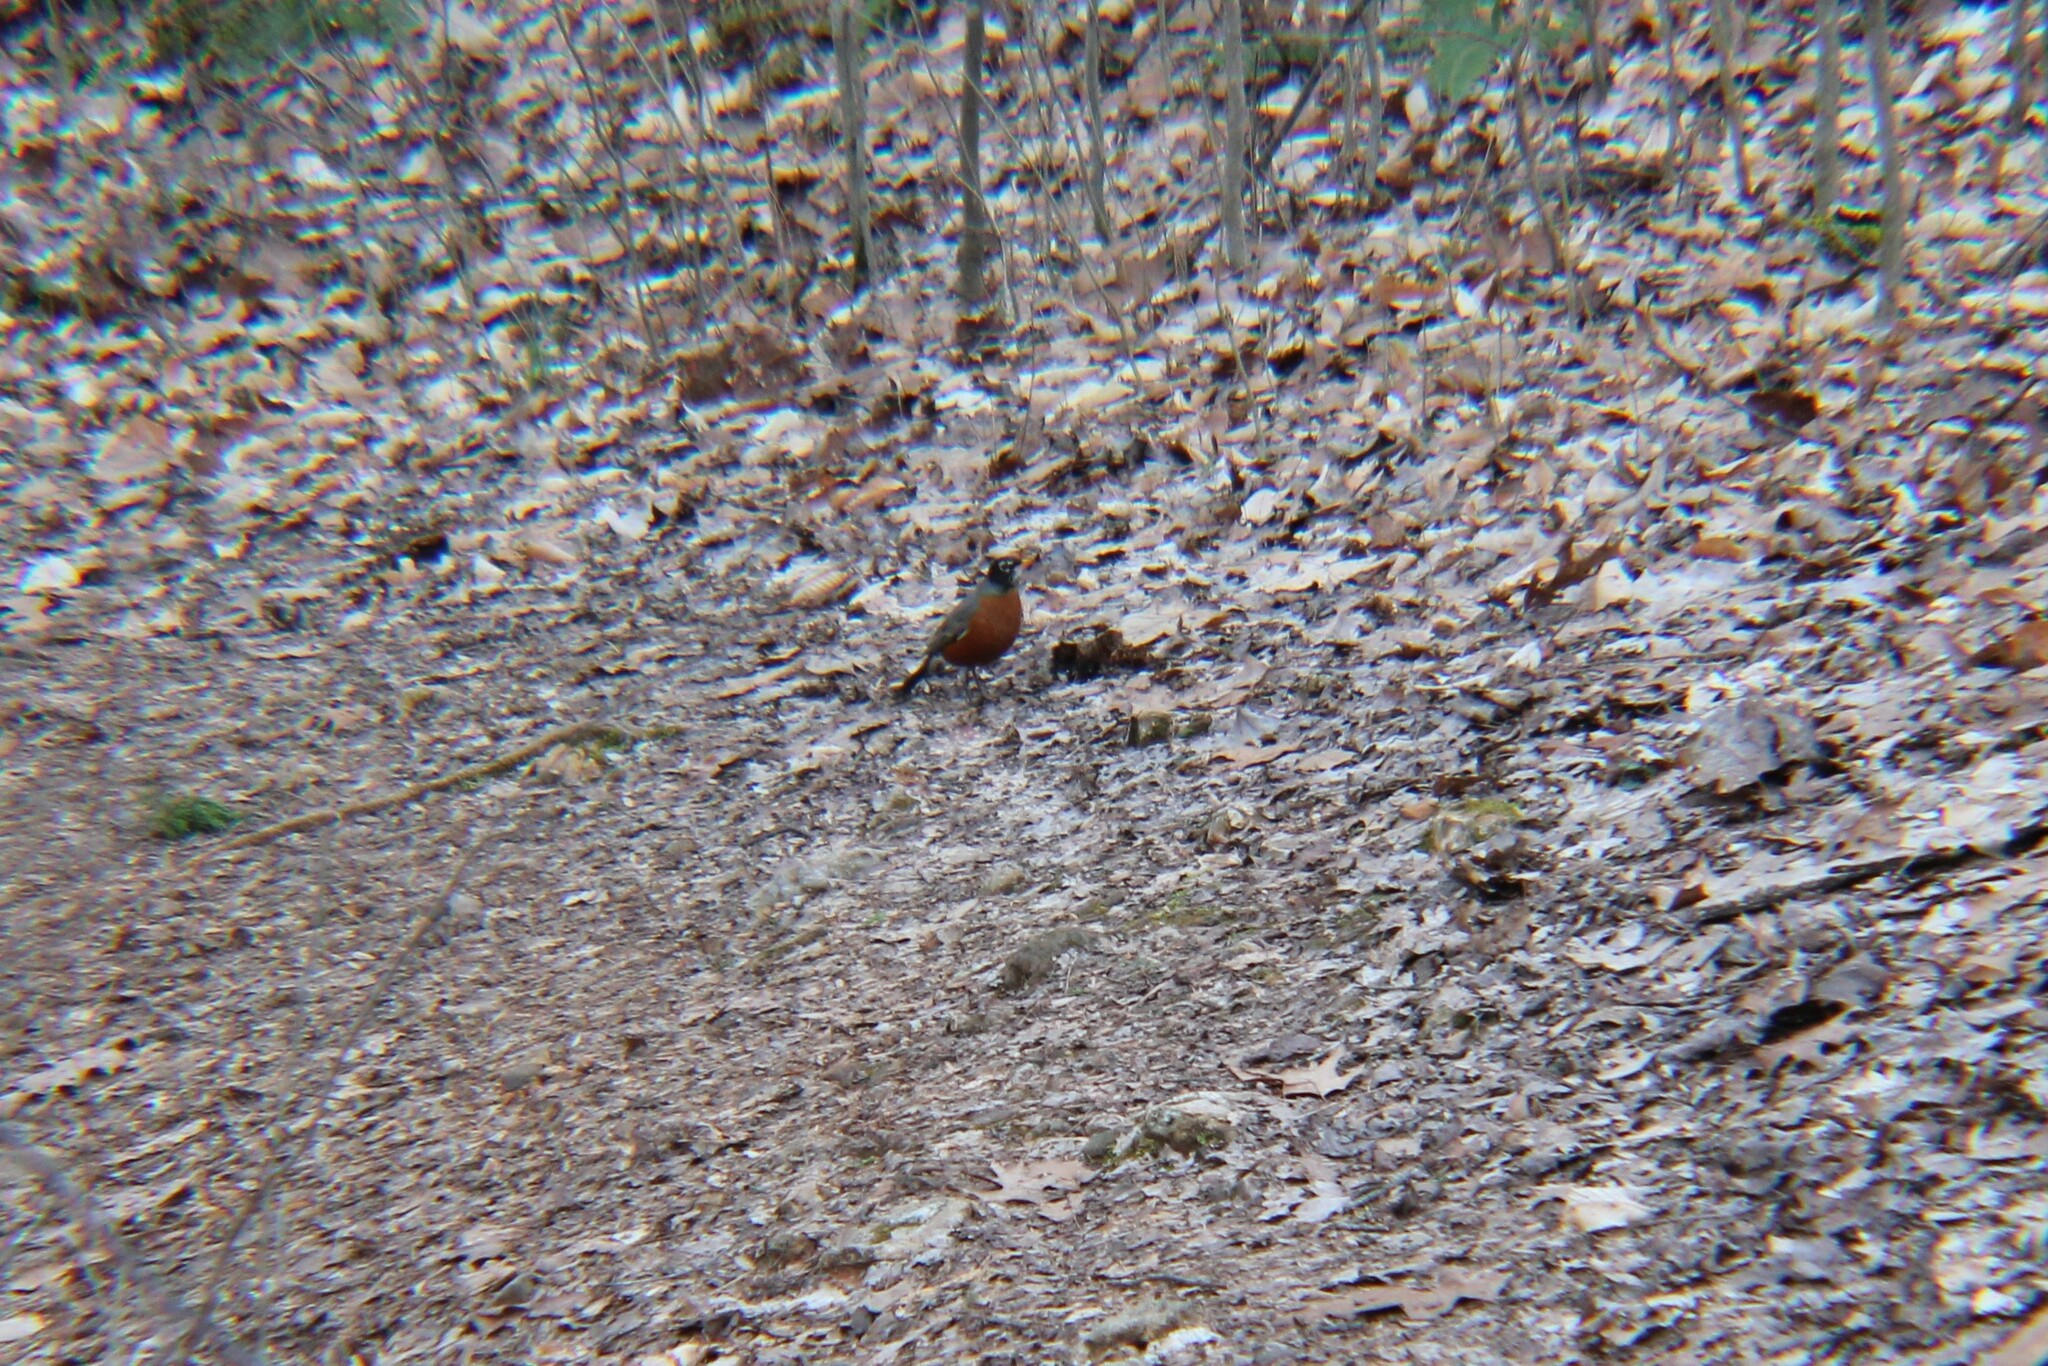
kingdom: Animalia
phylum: Chordata
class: Aves
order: Passeriformes
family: Turdidae
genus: Turdus
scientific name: Turdus migratorius
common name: American robin
